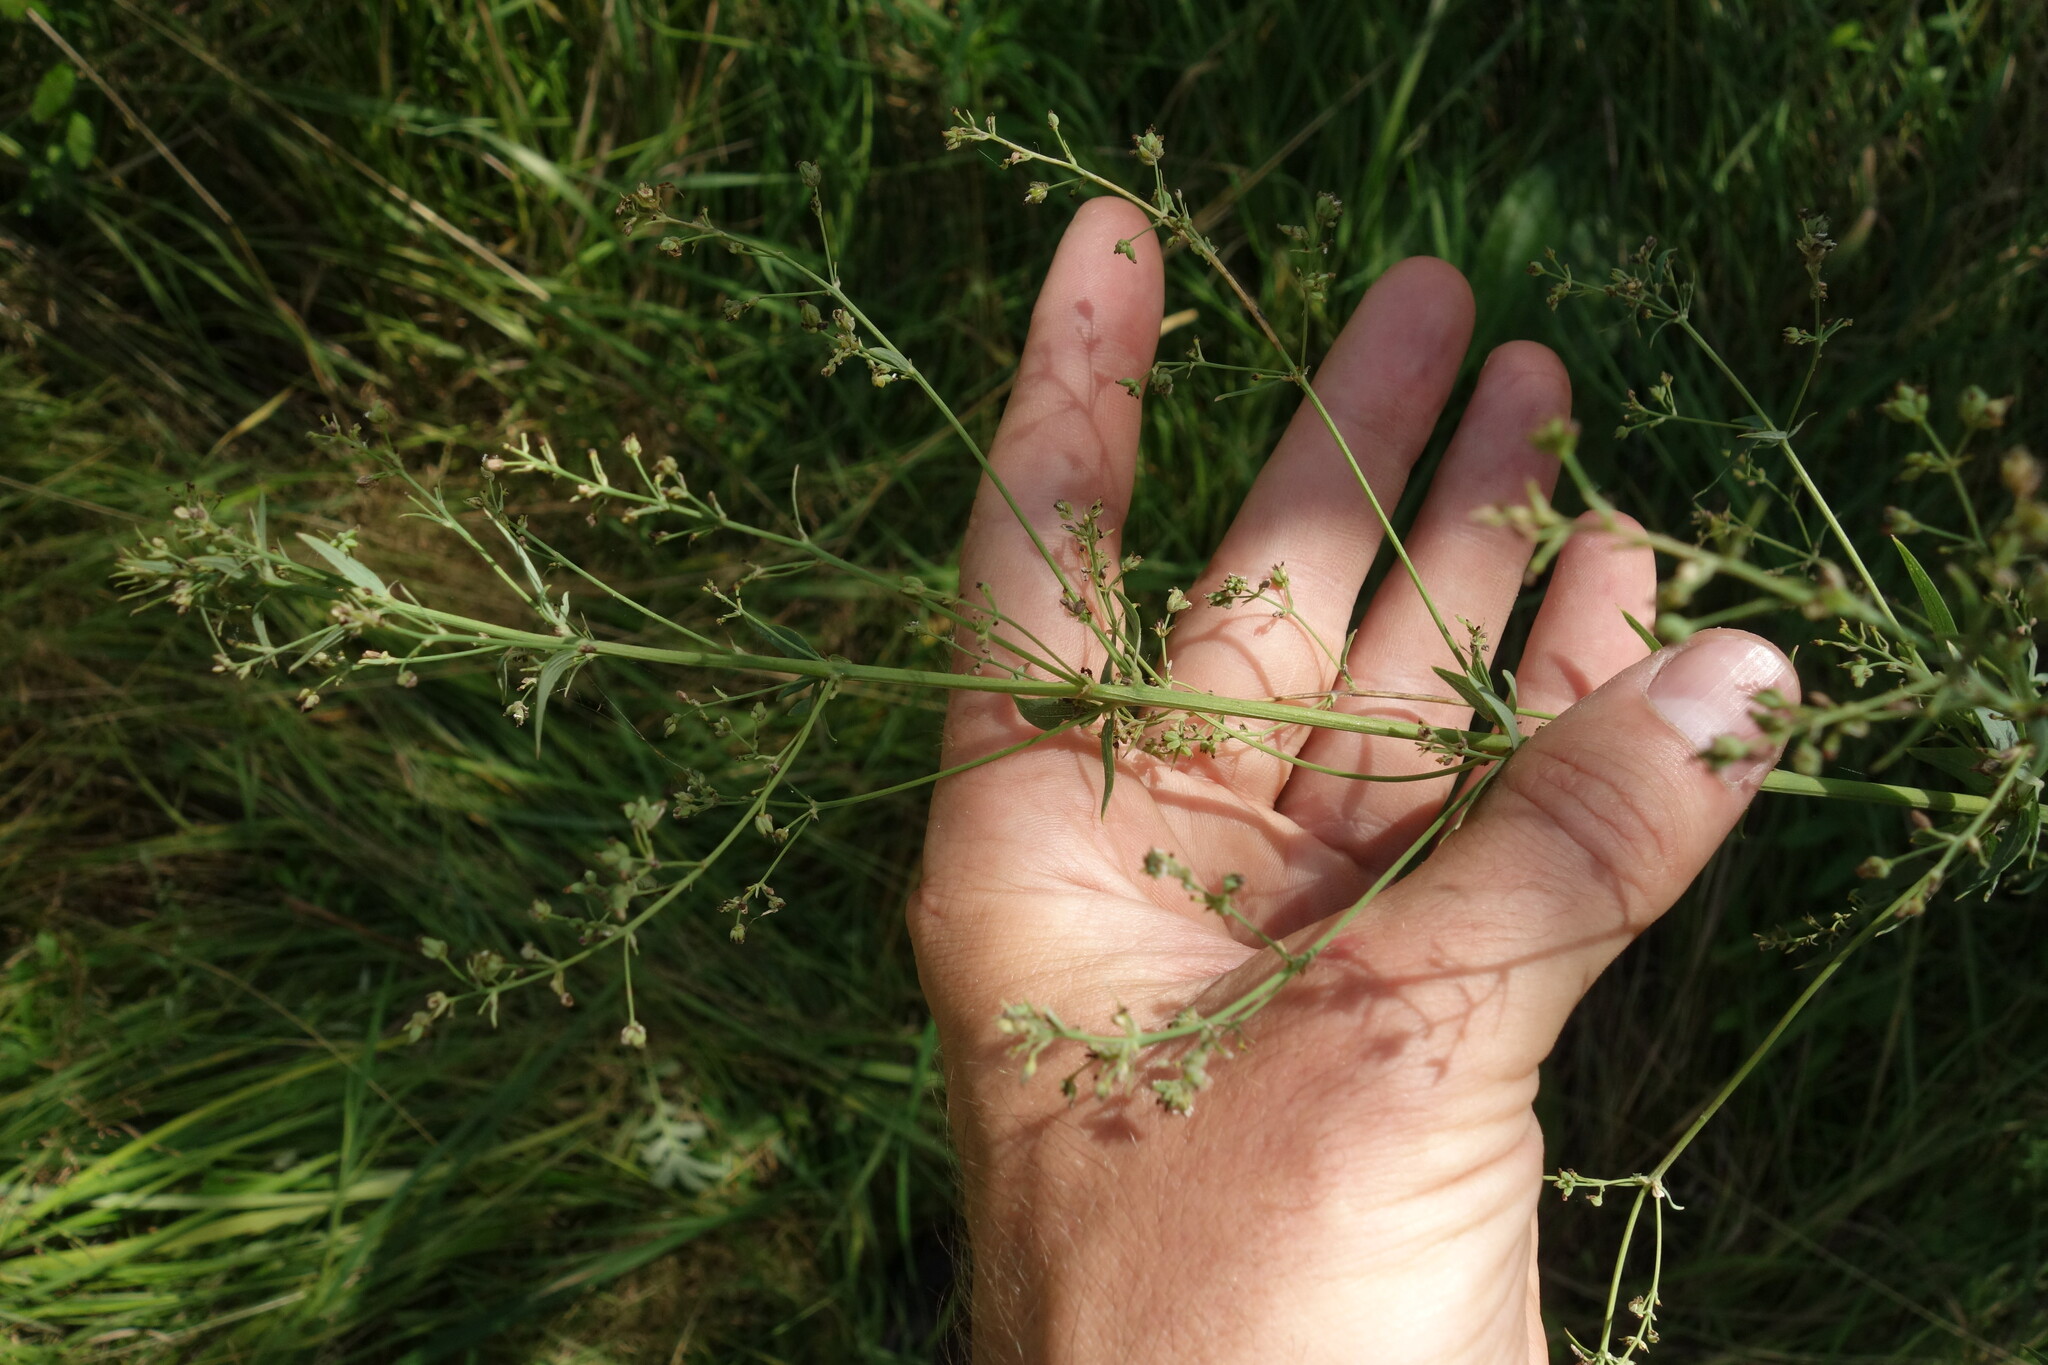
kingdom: Plantae
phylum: Tracheophyta
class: Magnoliopsida
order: Ranunculales
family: Ranunculaceae
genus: Thalictrum
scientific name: Thalictrum simplex
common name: Small meadow-rue
